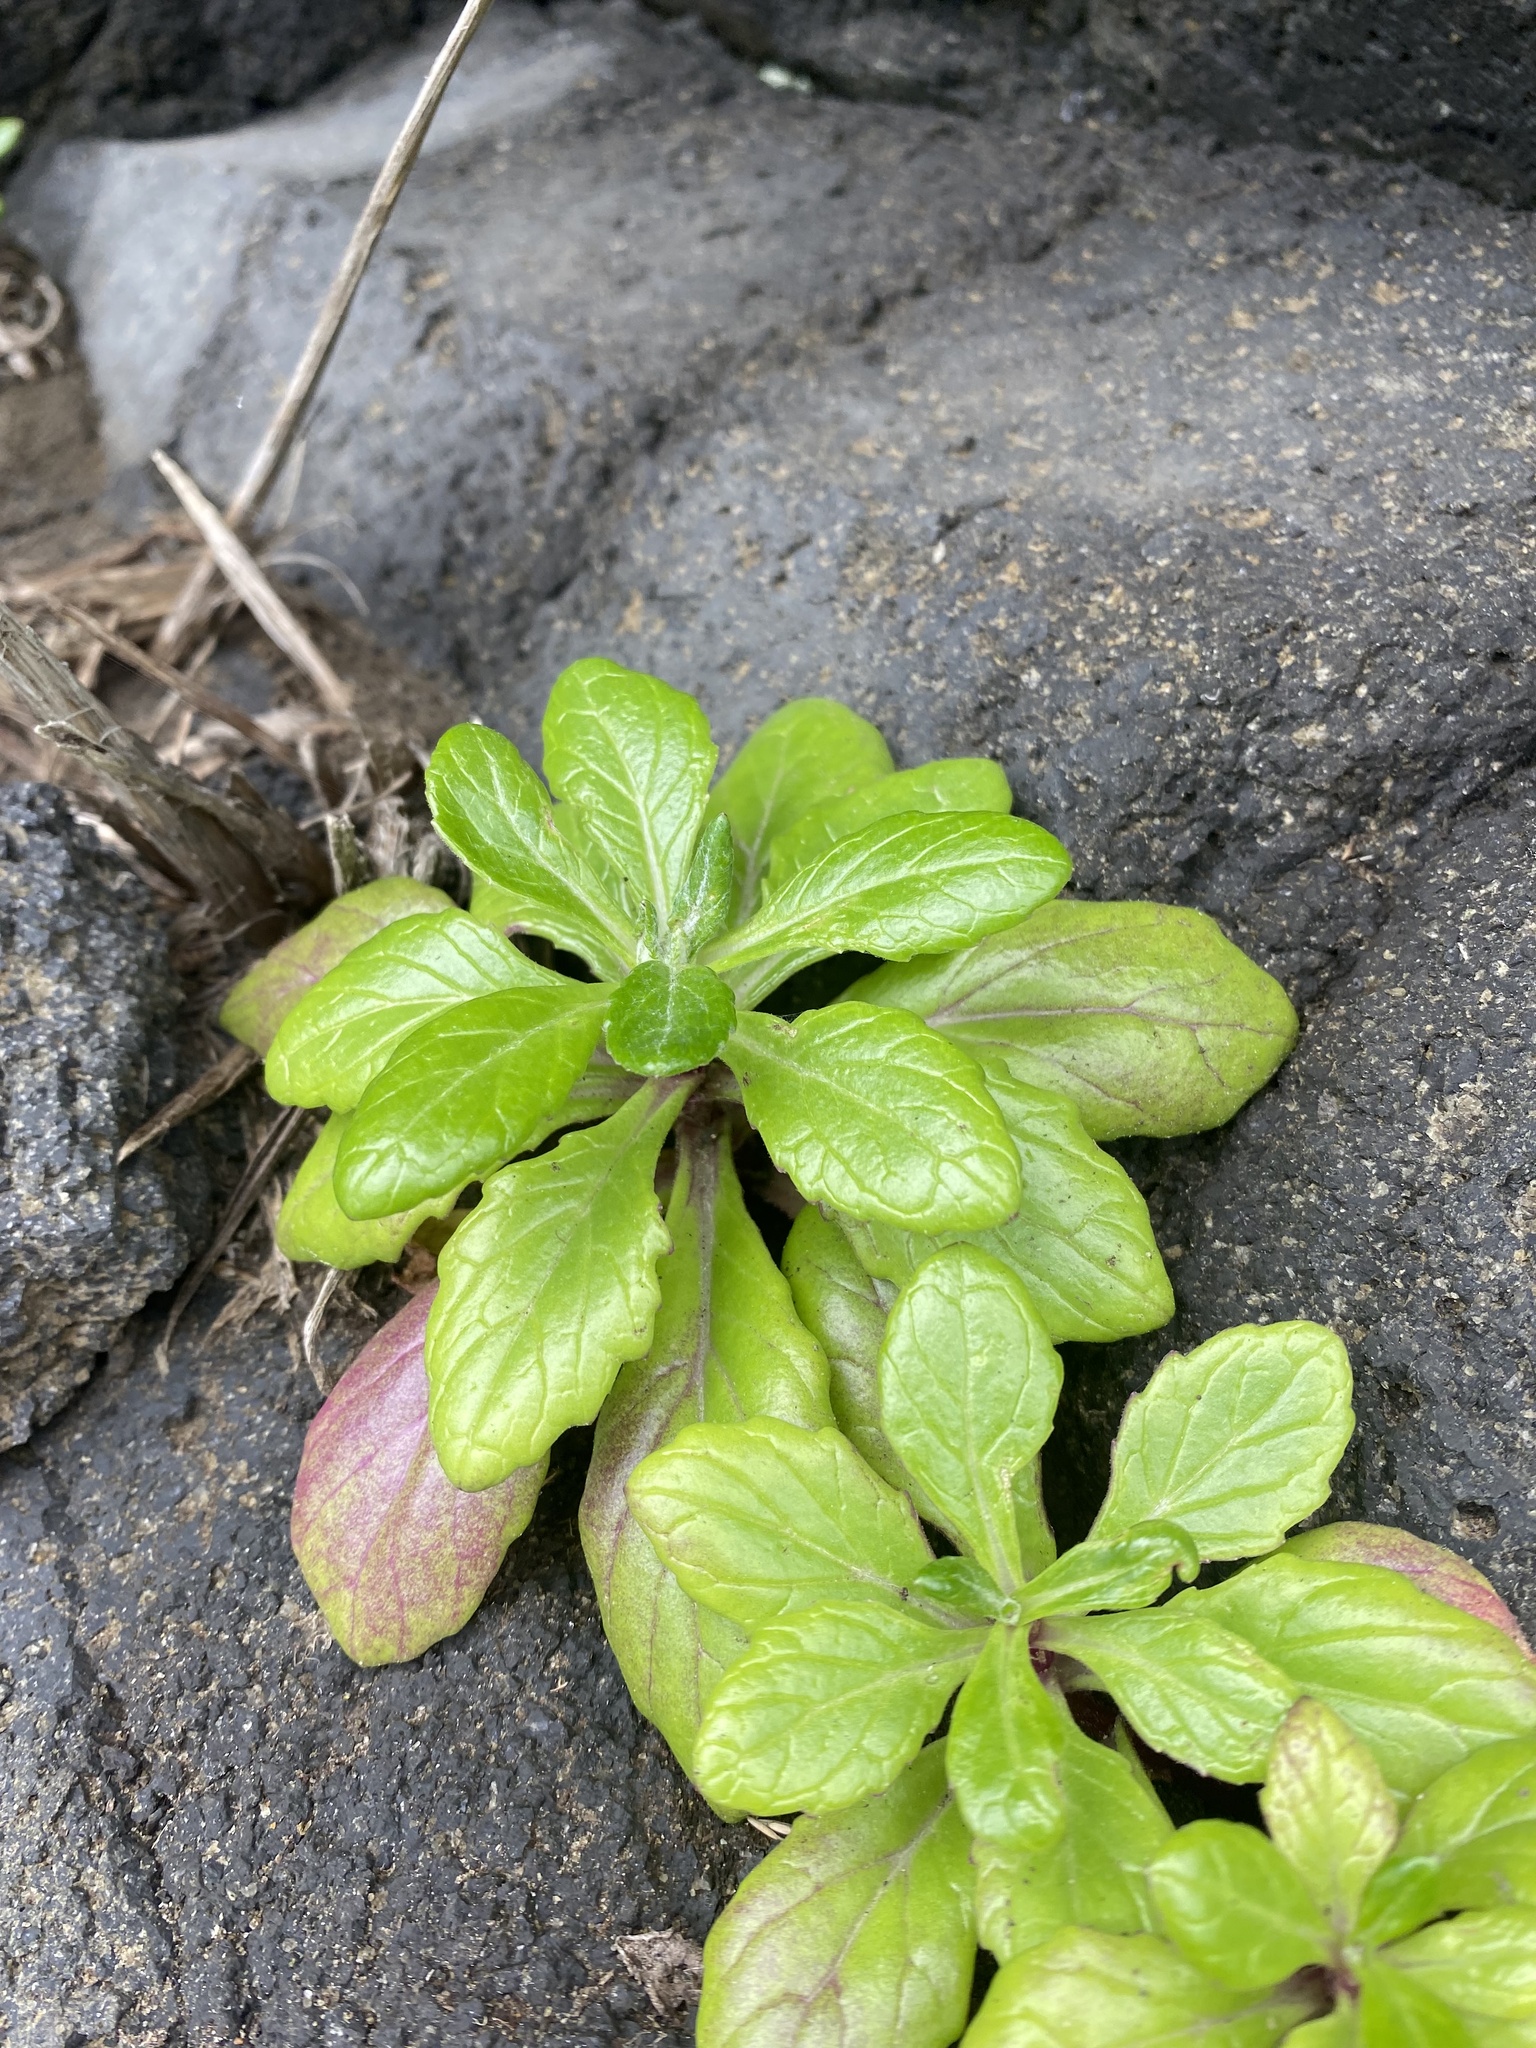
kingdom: Plantae
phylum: Tracheophyta
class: Magnoliopsida
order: Asterales
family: Asteraceae
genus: Jacobaea
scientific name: Jacobaea pseudoarnica
